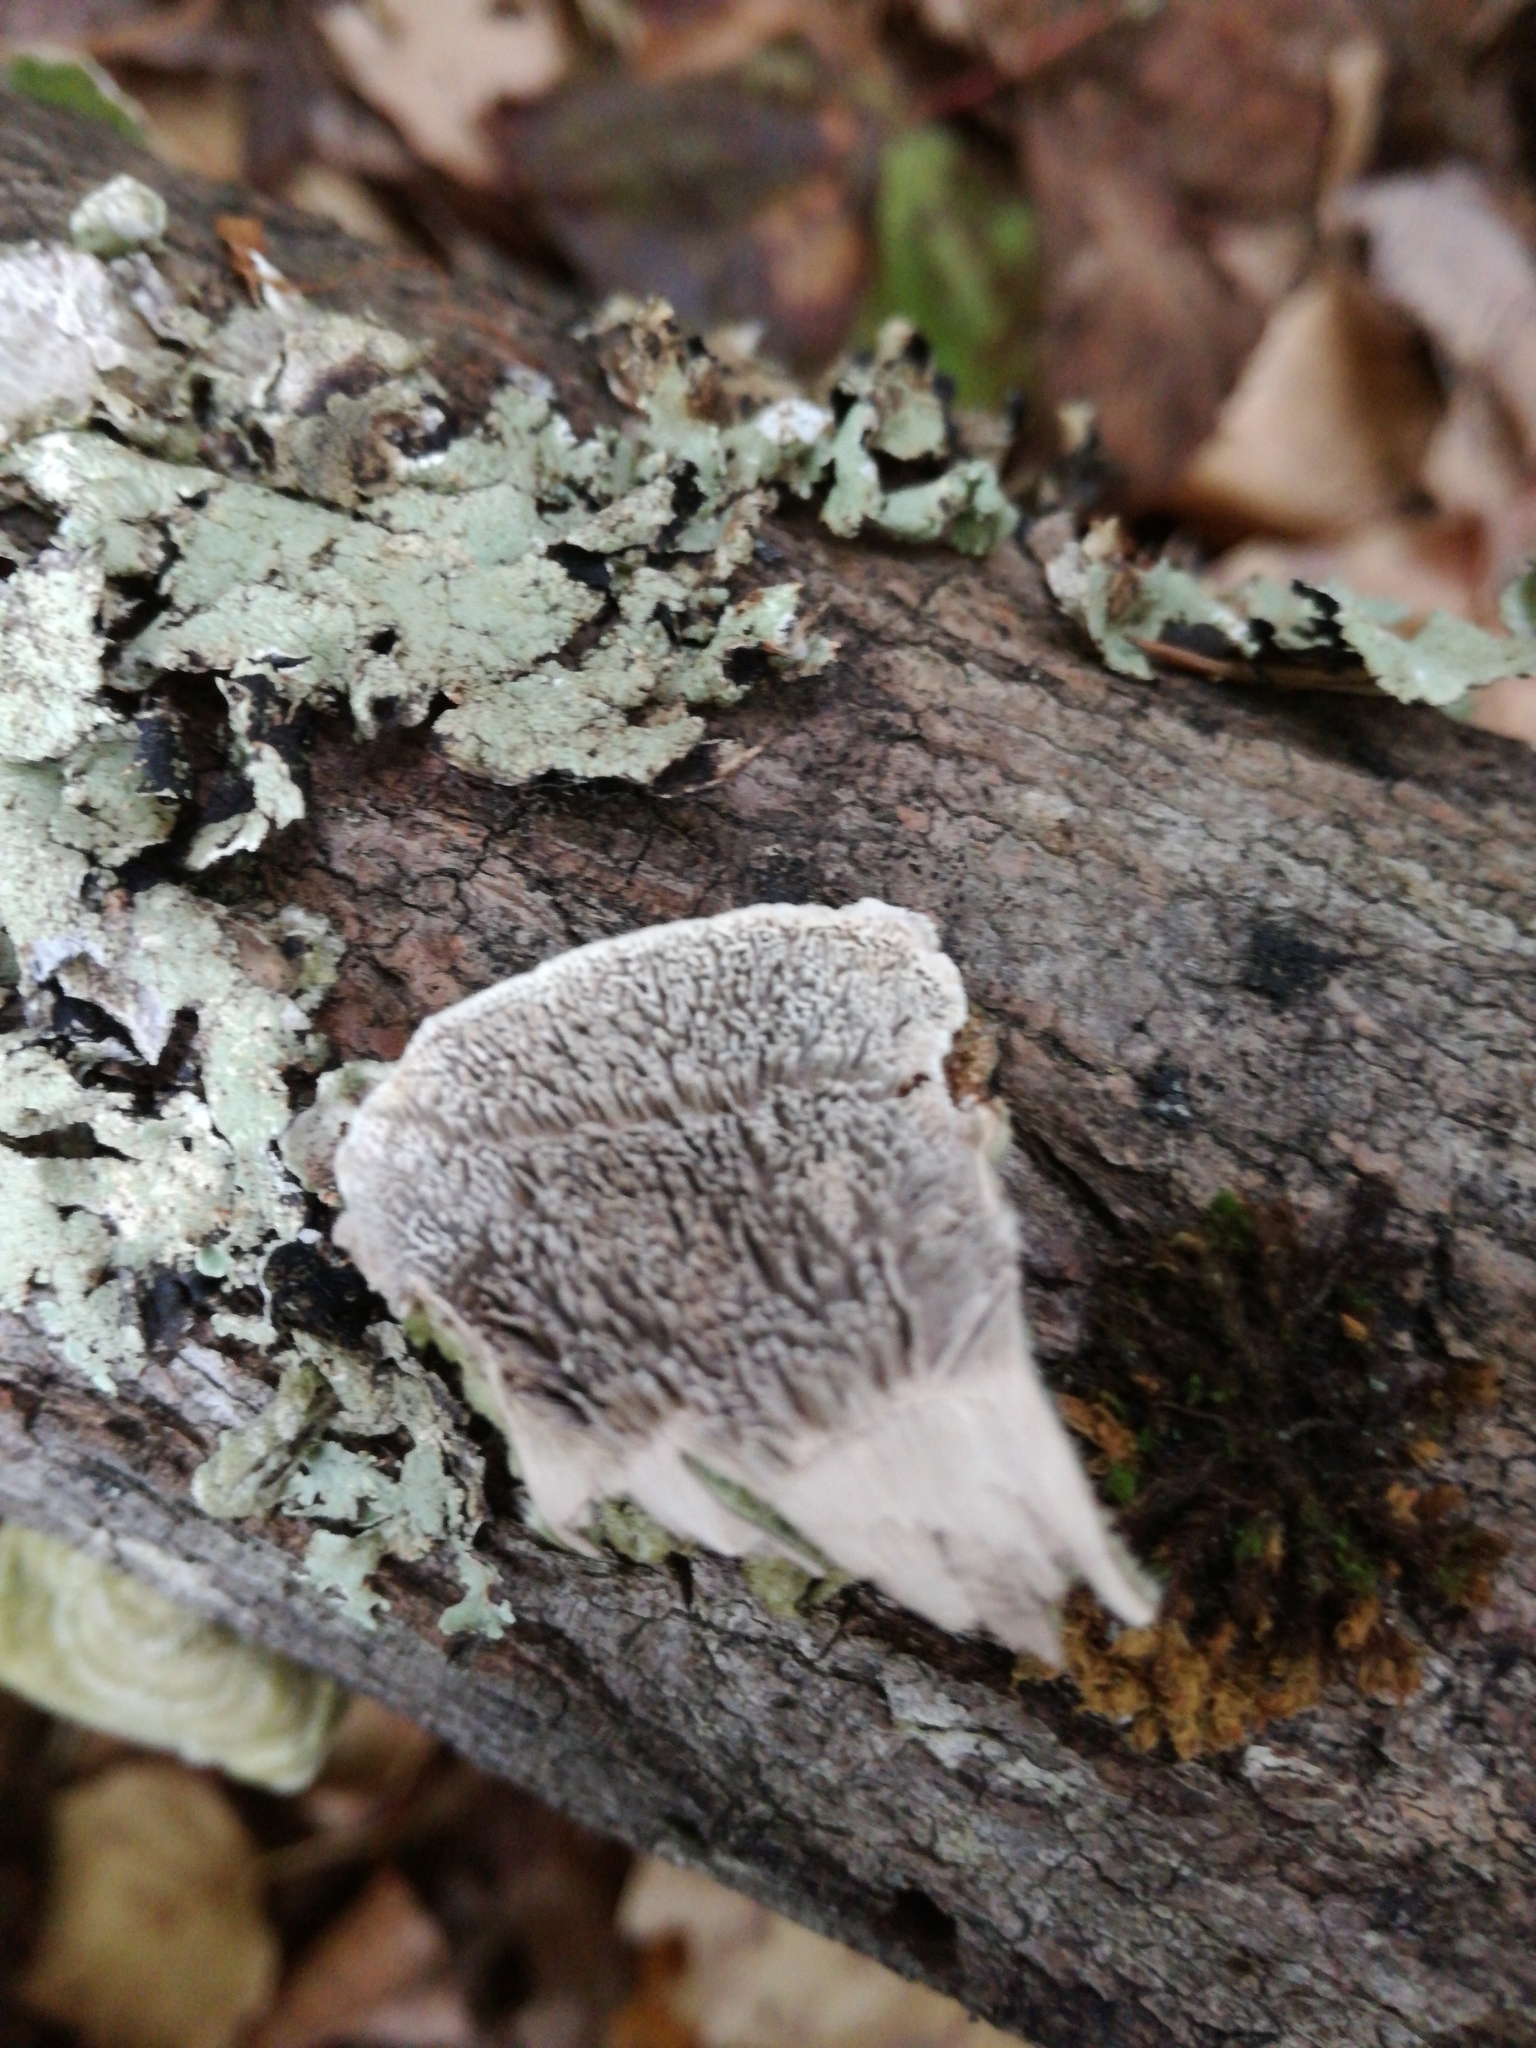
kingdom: Fungi
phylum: Basidiomycota
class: Agaricomycetes
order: Polyporales
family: Cerrenaceae
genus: Cerrena
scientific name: Cerrena unicolor
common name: Mossy maze polypore
